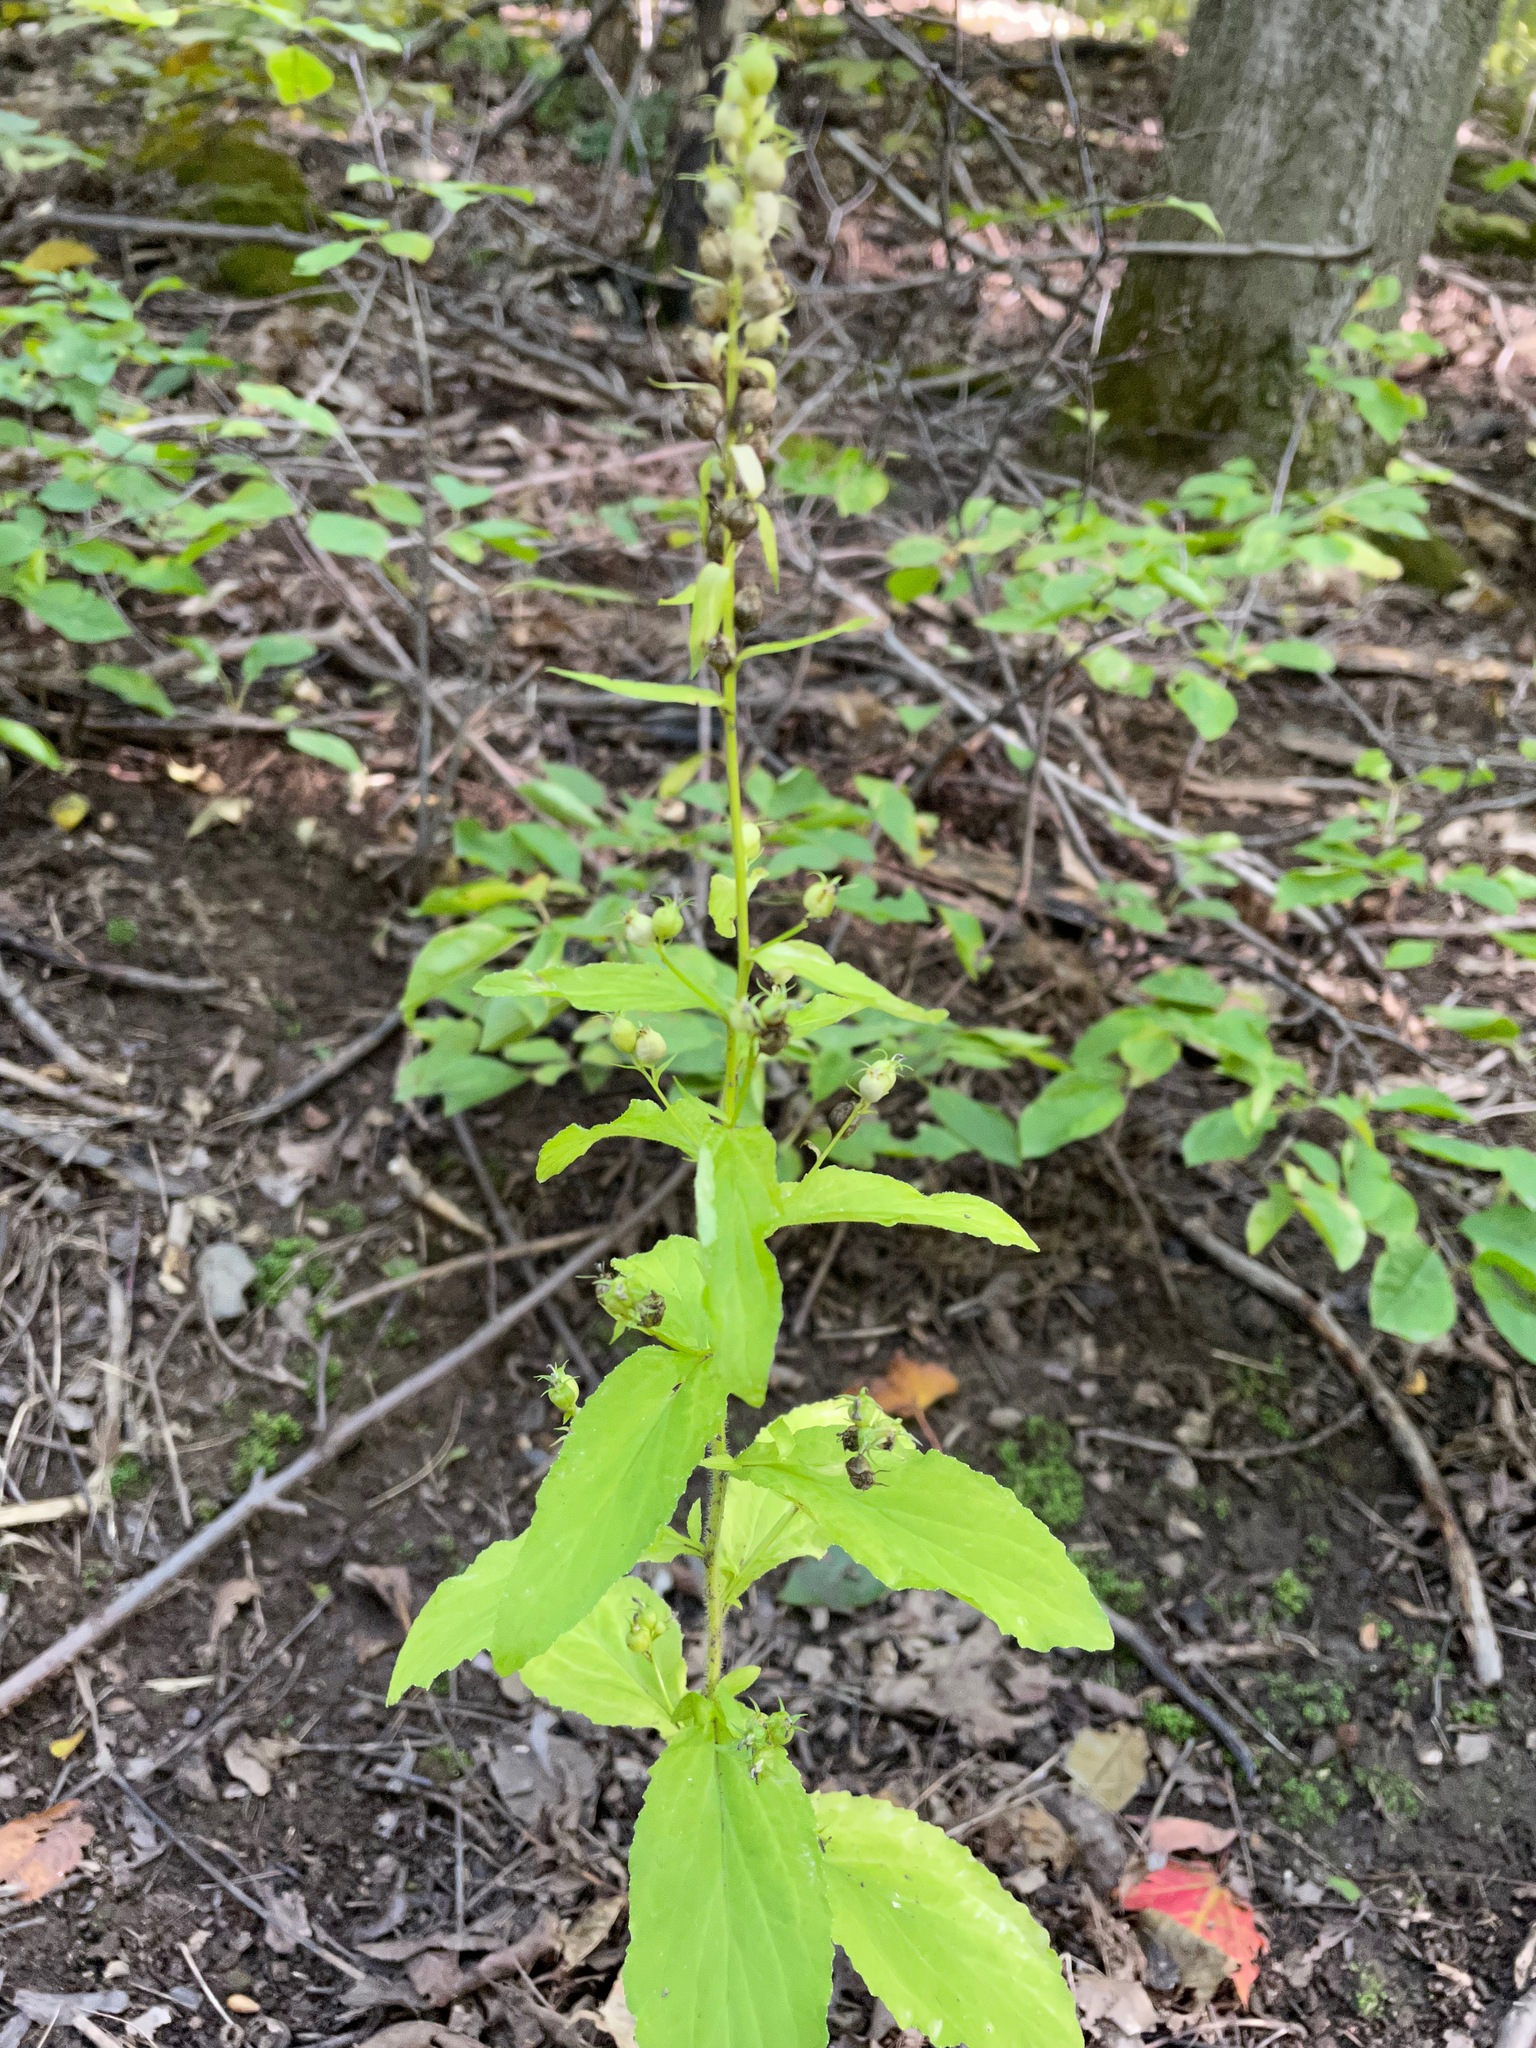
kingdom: Plantae
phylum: Tracheophyta
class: Magnoliopsida
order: Asterales
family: Campanulaceae
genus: Lobelia
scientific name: Lobelia inflata
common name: Indian tobacco
